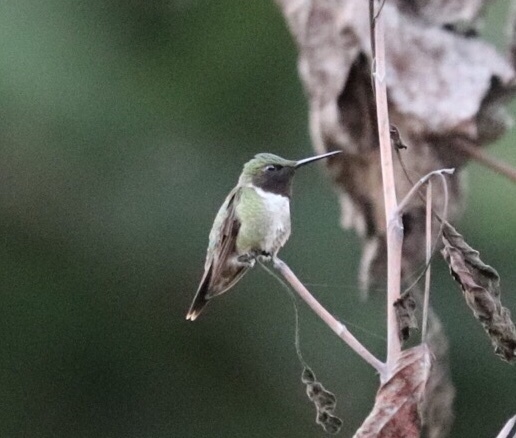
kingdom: Animalia
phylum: Chordata
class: Aves
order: Apodiformes
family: Trochilidae
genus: Archilochus
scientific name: Archilochus colubris
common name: Ruby-throated hummingbird
